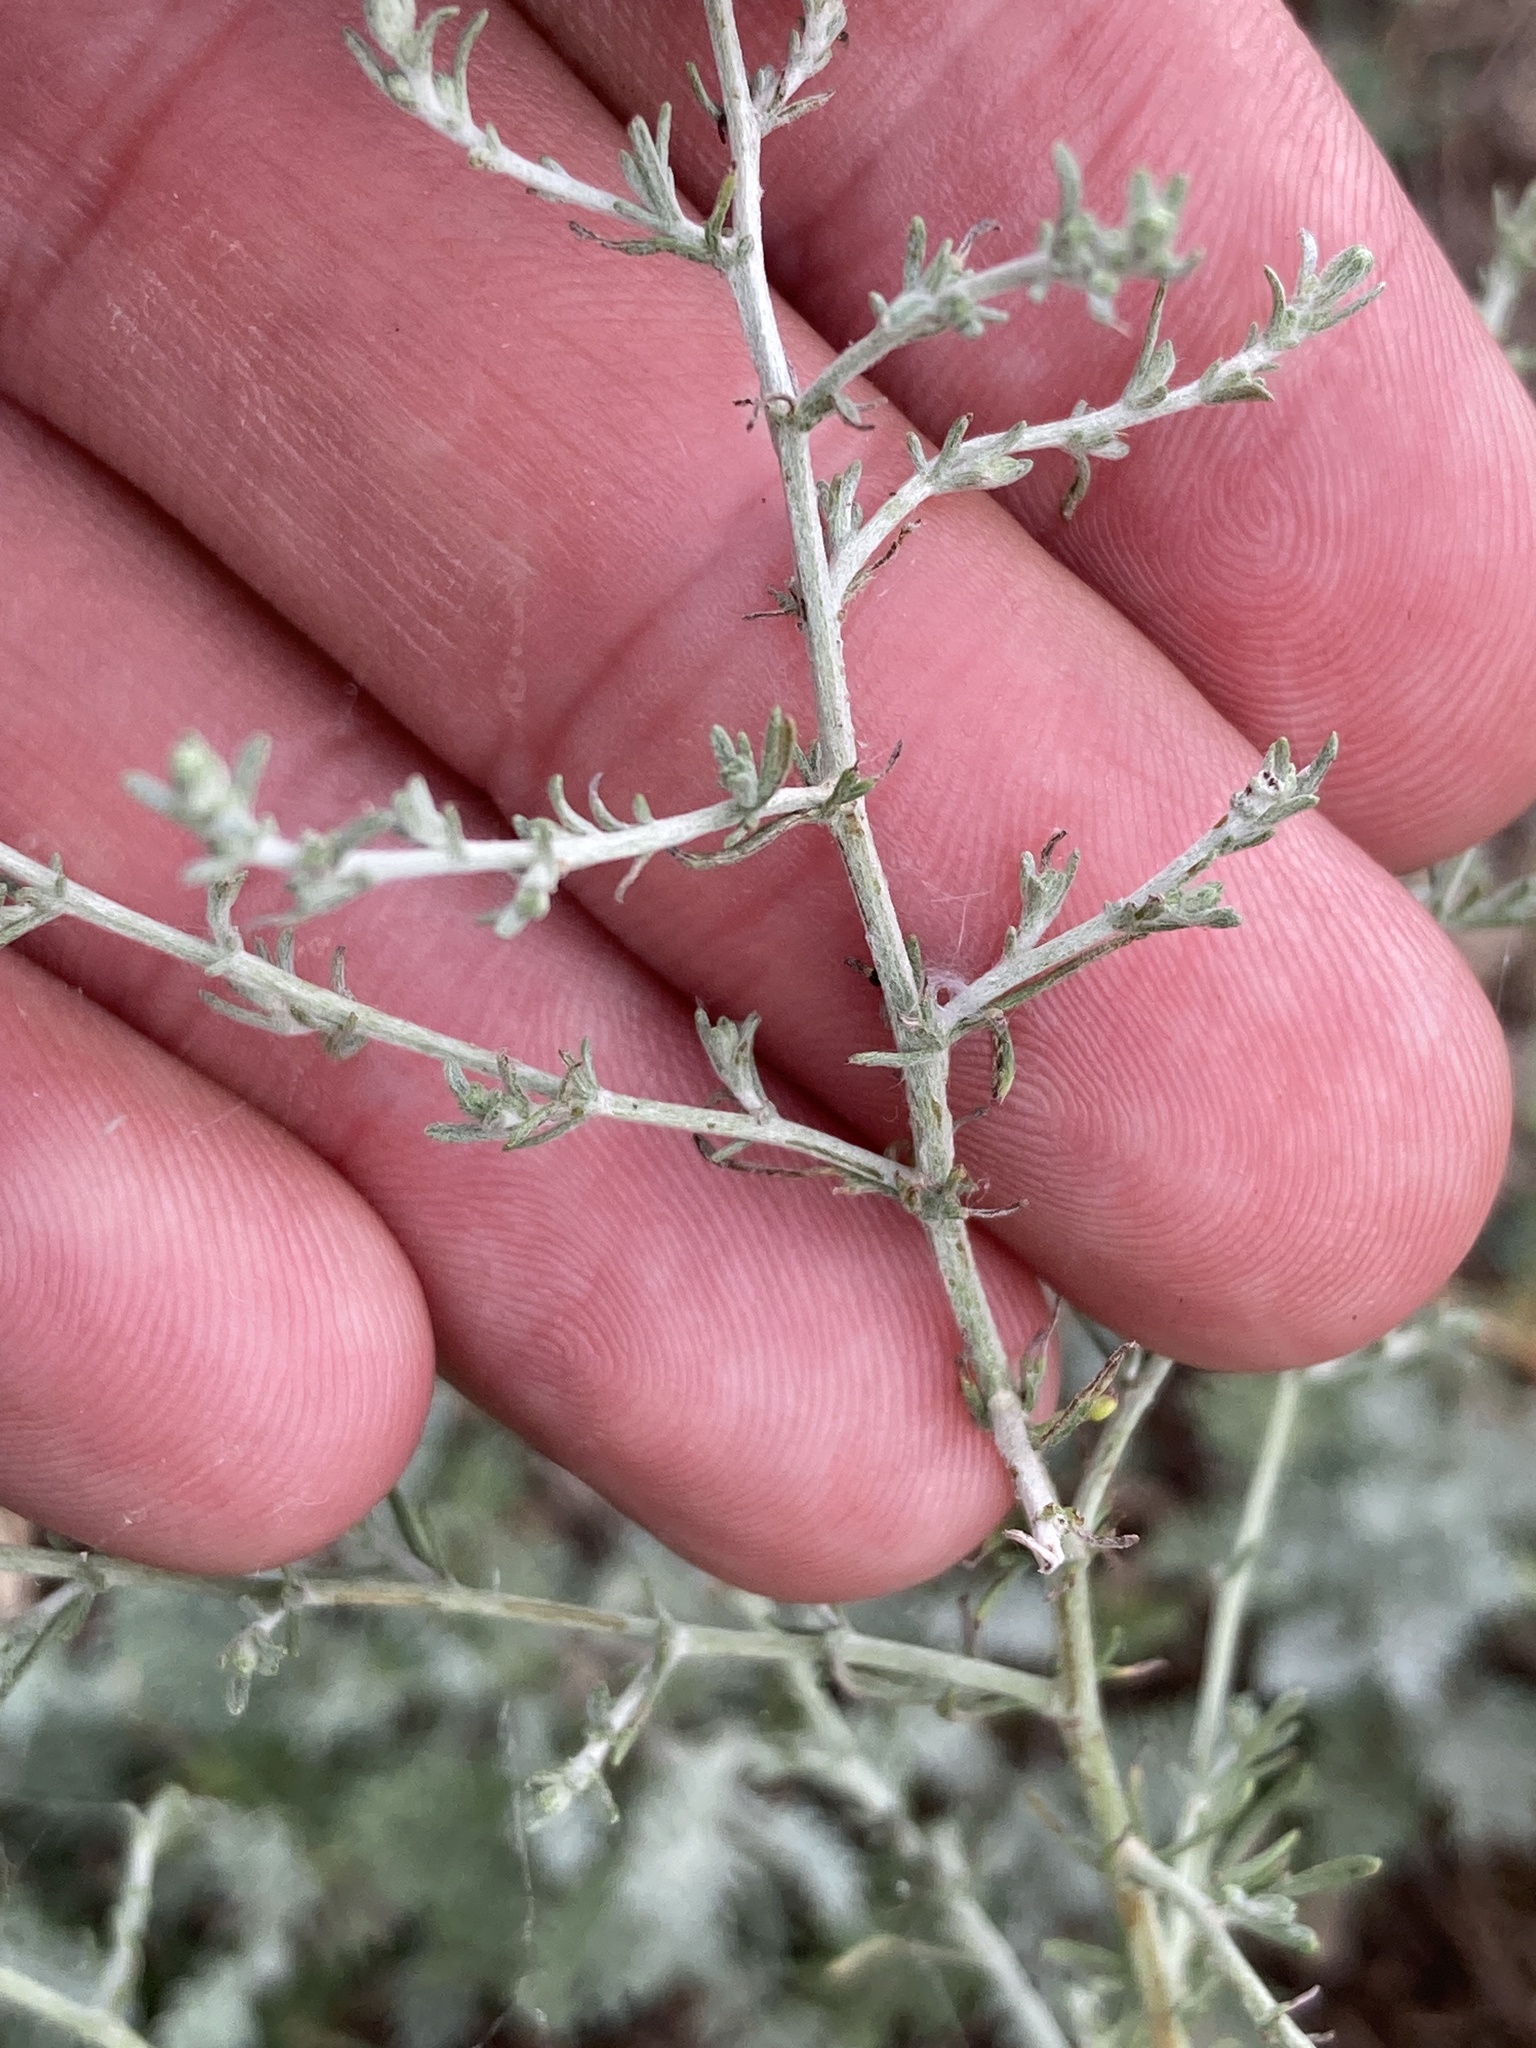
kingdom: Plantae
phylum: Tracheophyta
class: Magnoliopsida
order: Asterales
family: Asteraceae
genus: Artemisia
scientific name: Artemisia santonicum
